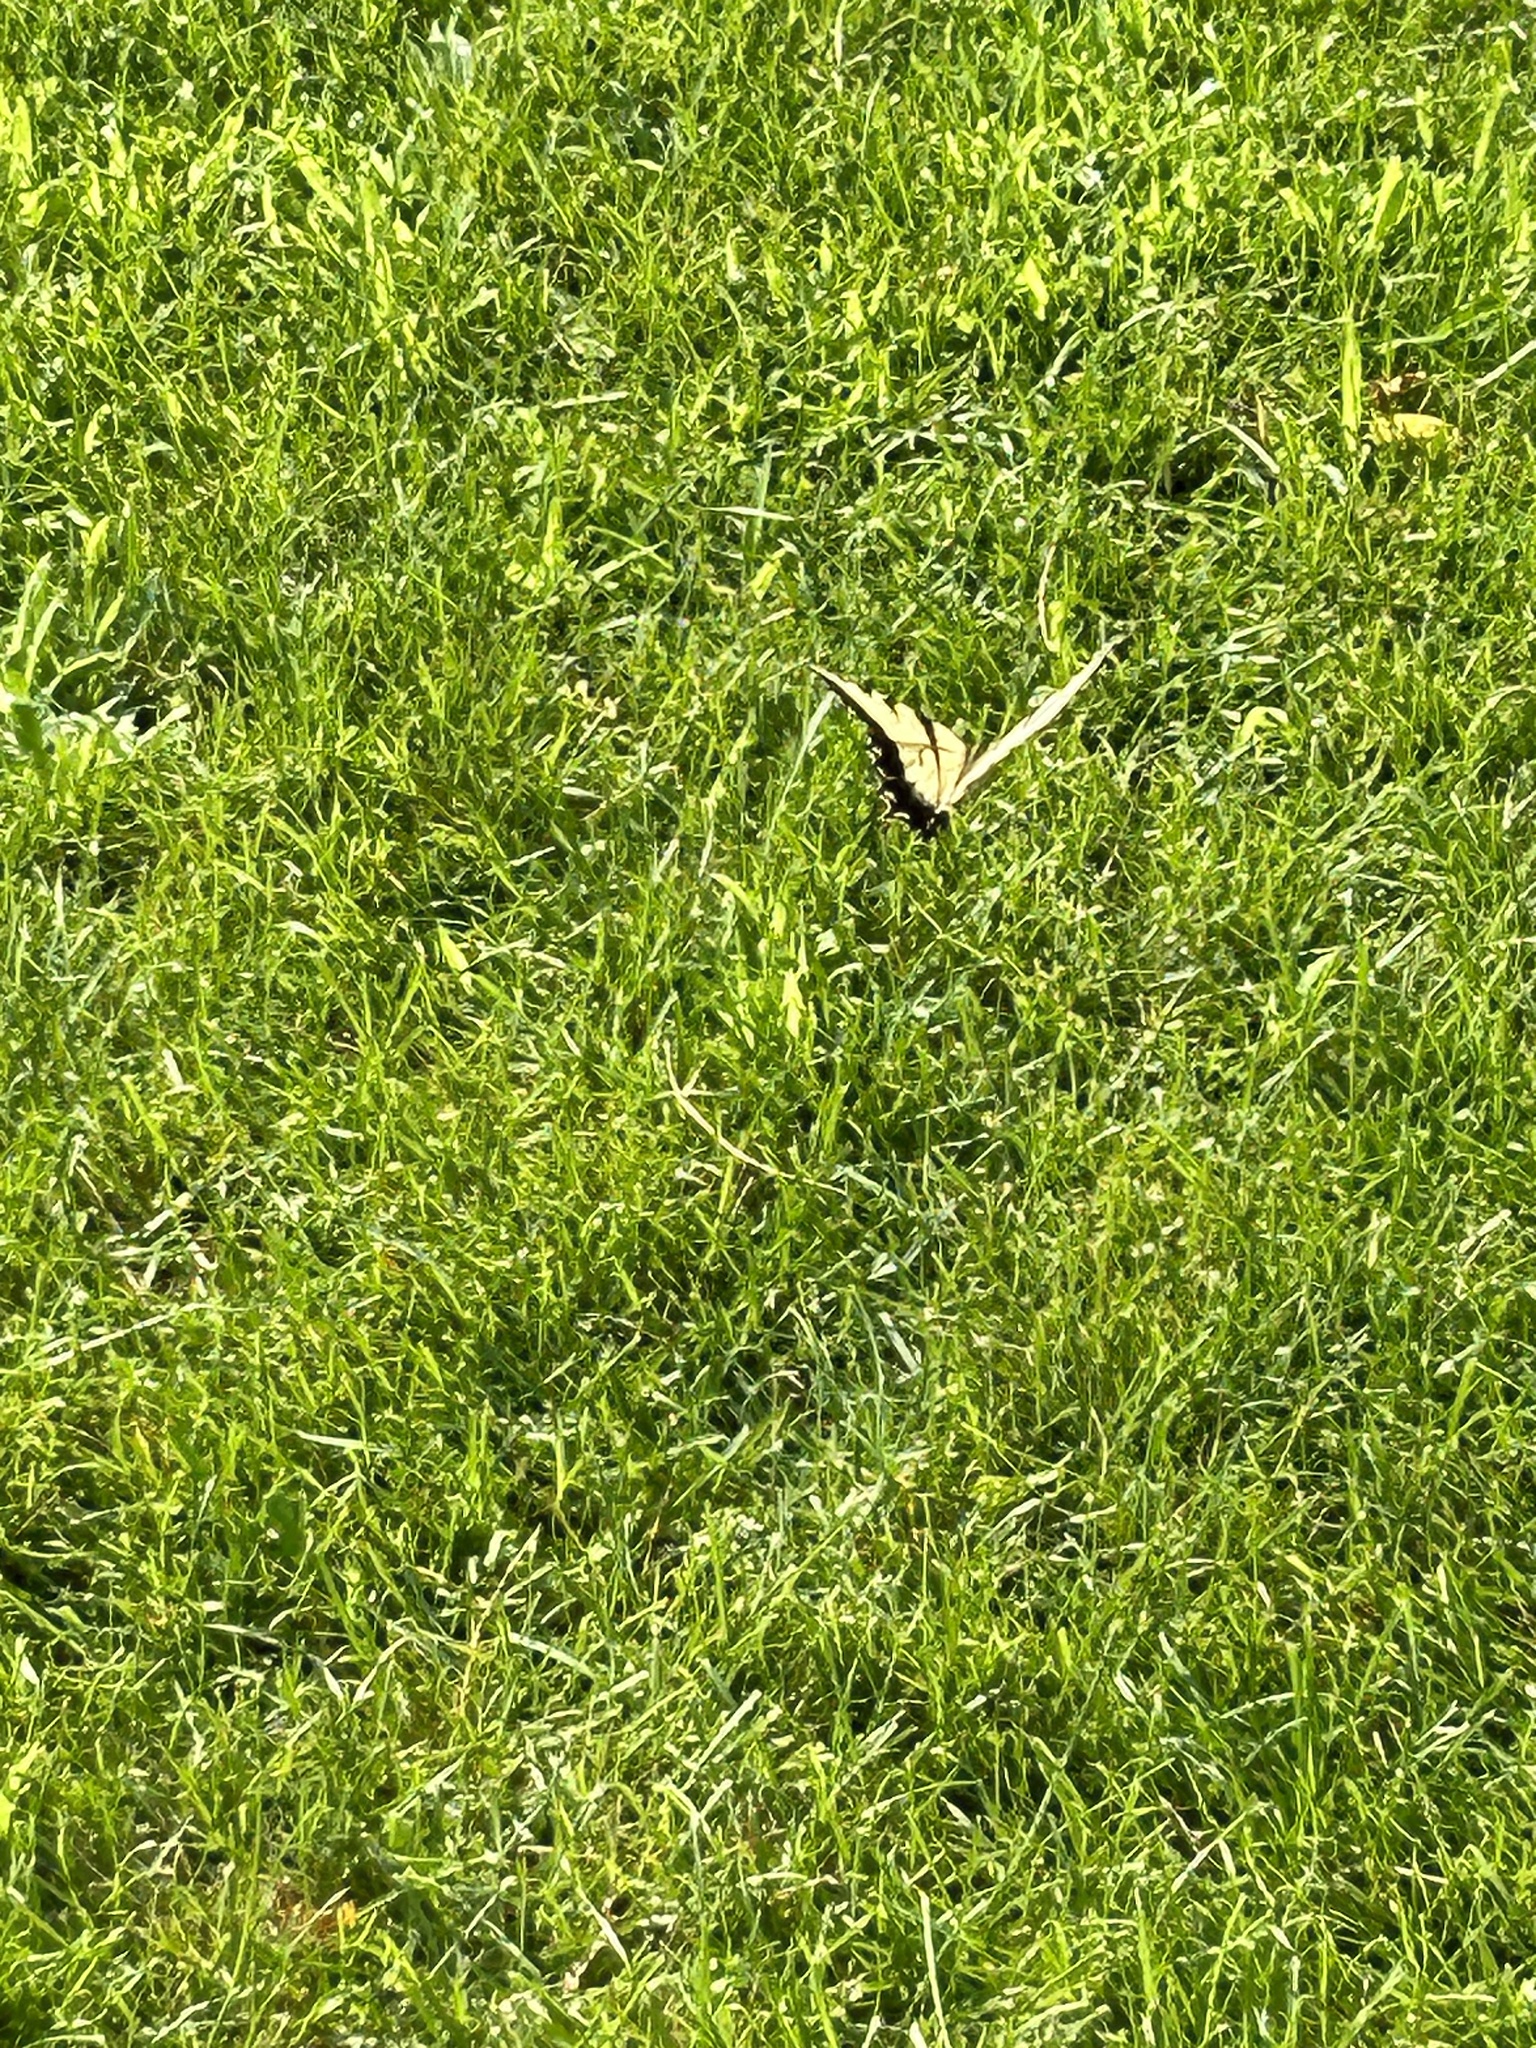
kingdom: Animalia
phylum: Arthropoda
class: Insecta
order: Lepidoptera
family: Papilionidae
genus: Papilio
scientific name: Papilio glaucus
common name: Tiger swallowtail
